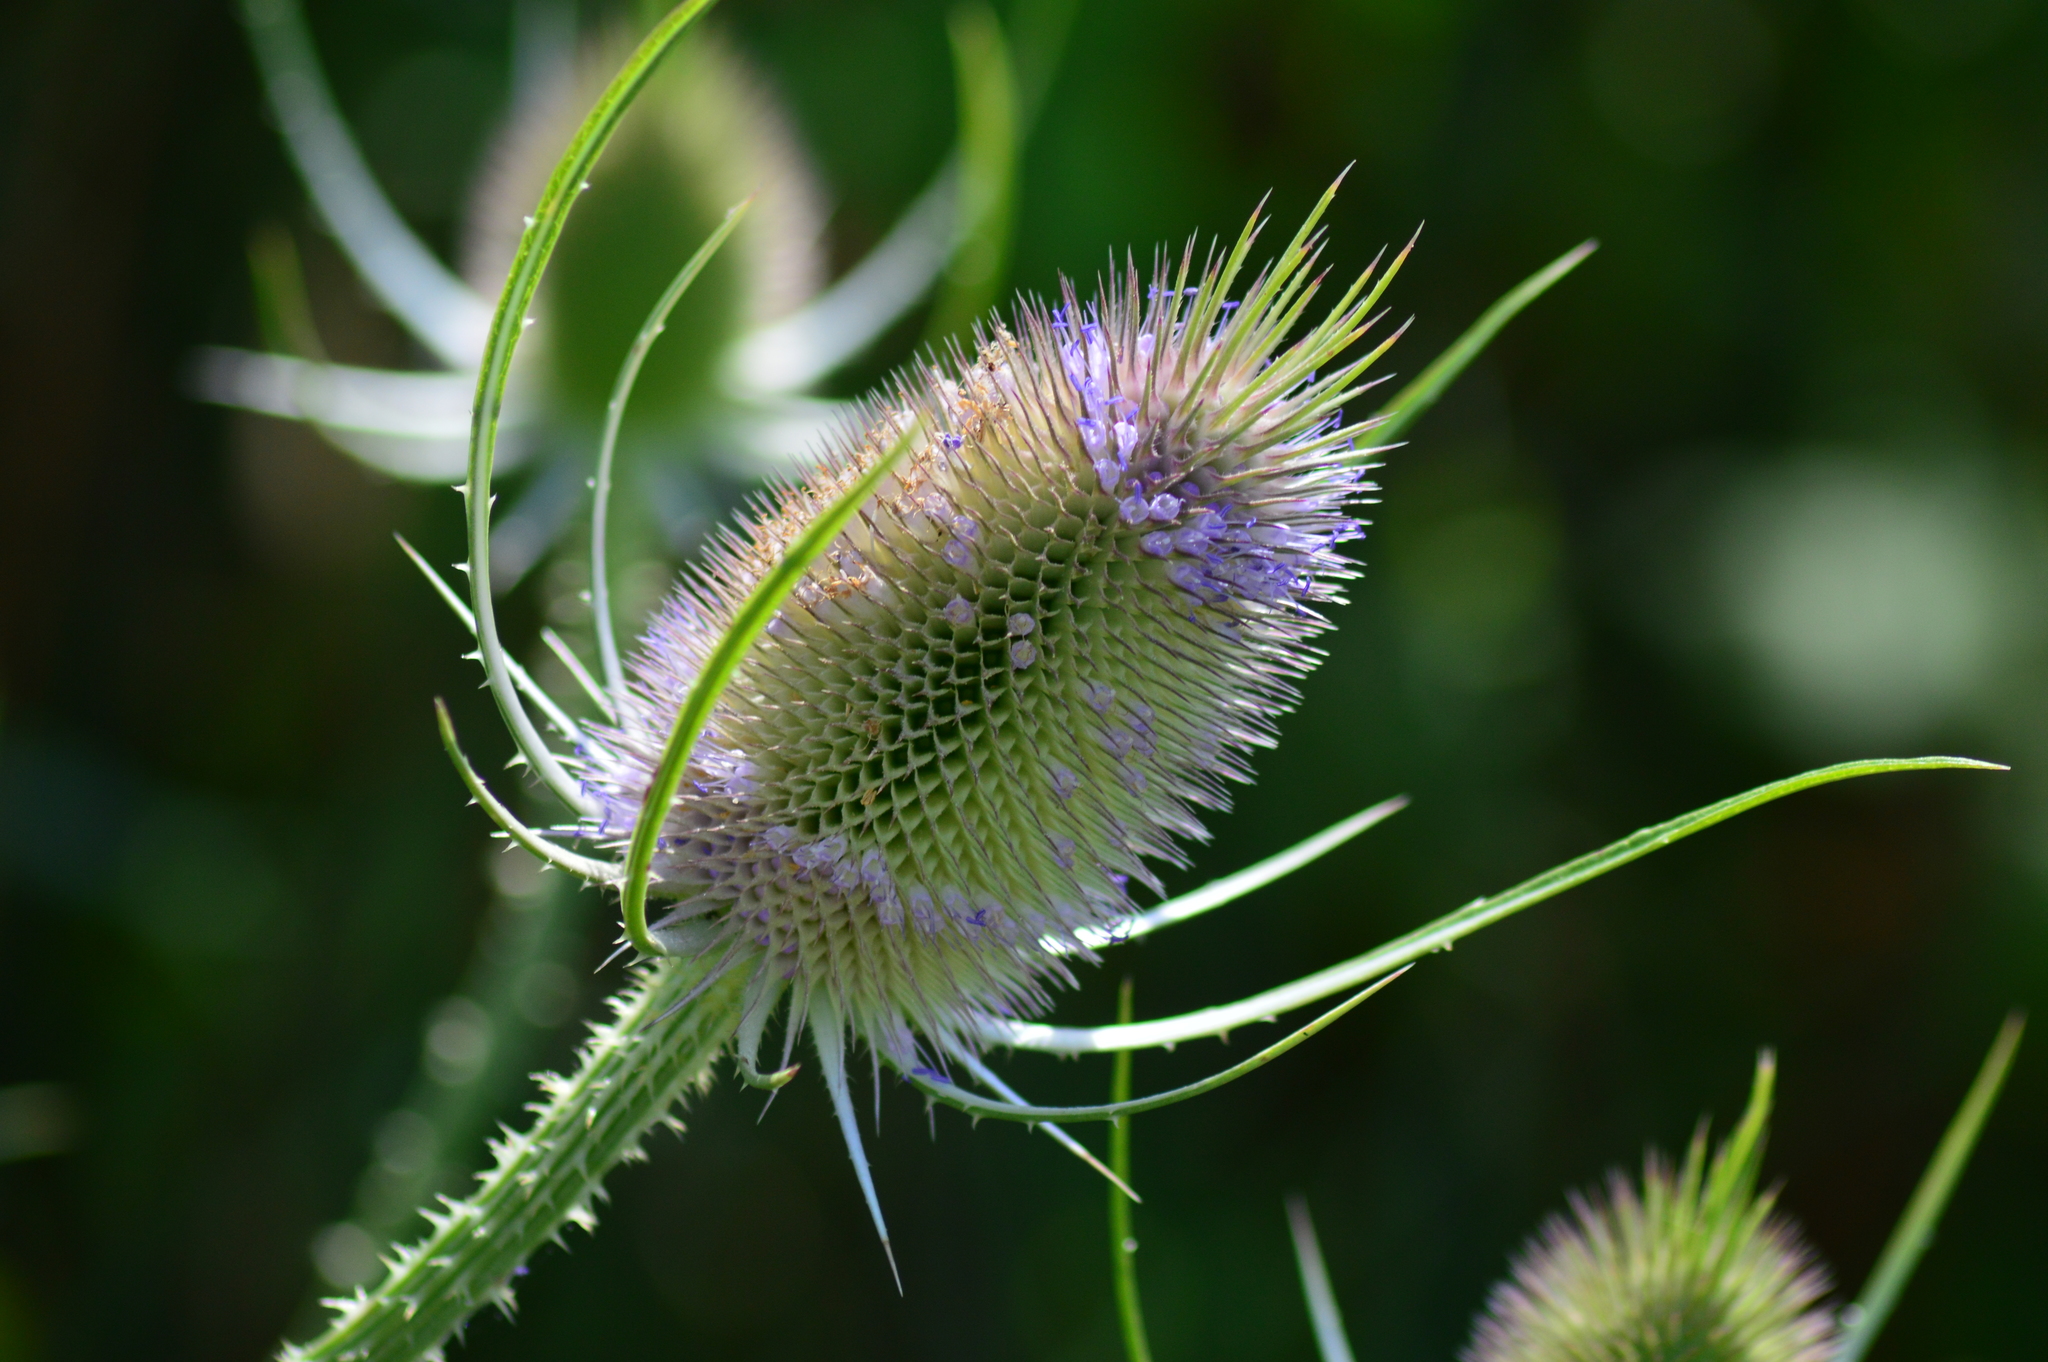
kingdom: Plantae
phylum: Tracheophyta
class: Magnoliopsida
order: Dipsacales
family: Caprifoliaceae
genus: Dipsacus
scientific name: Dipsacus fullonum
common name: Teasel
